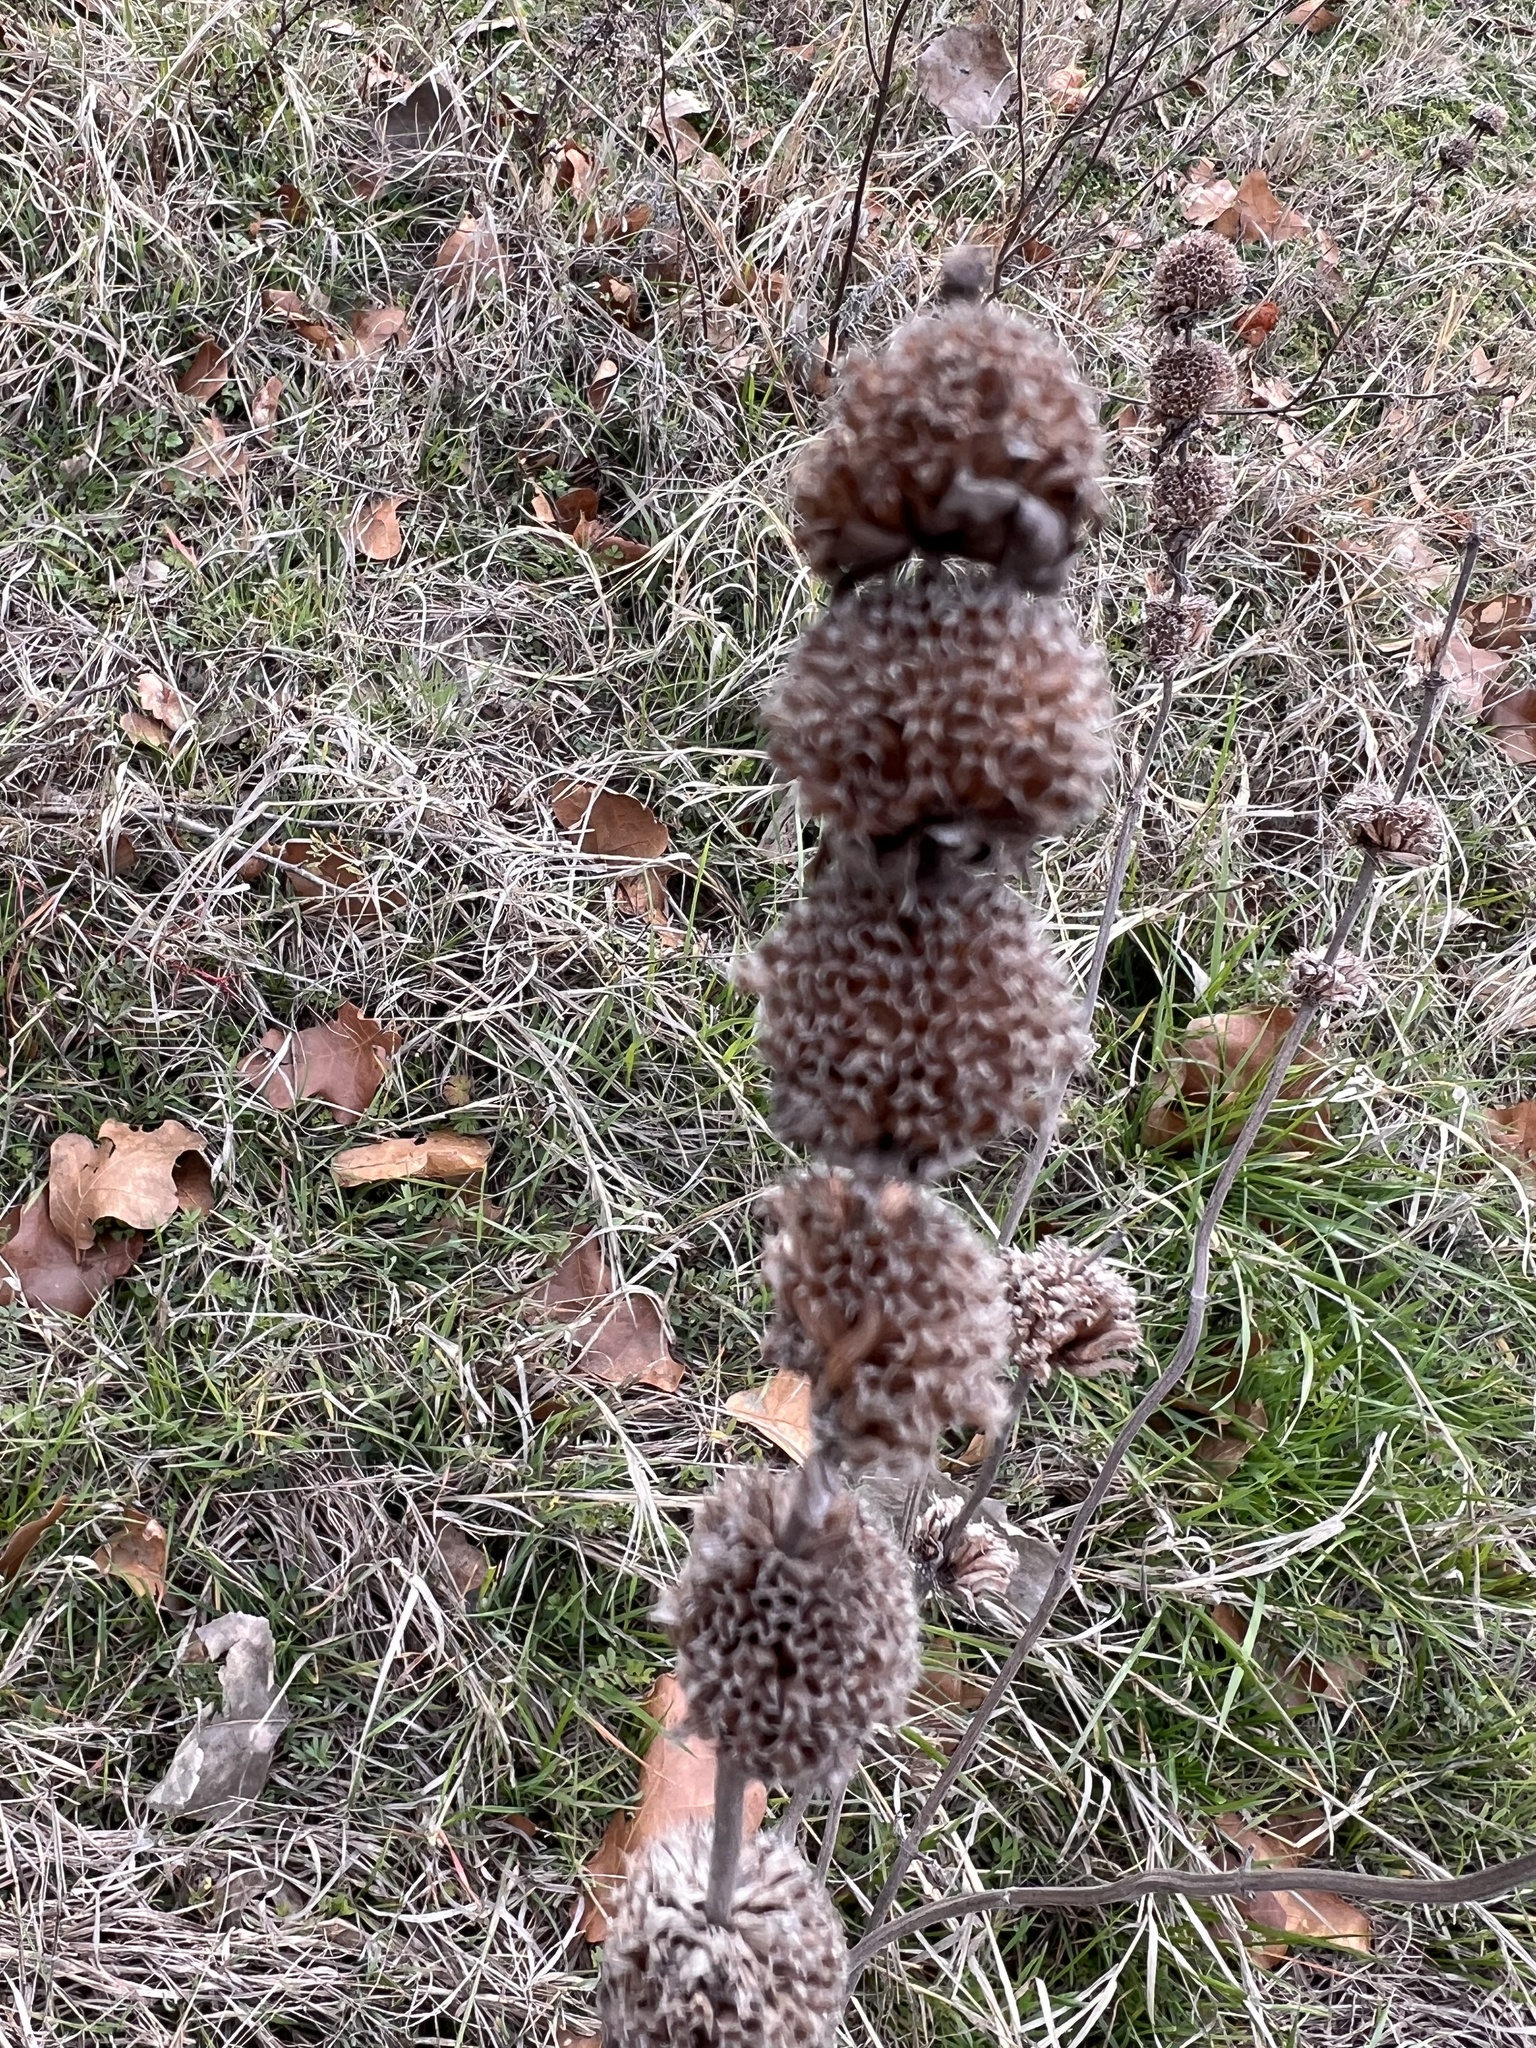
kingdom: Plantae
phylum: Tracheophyta
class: Magnoliopsida
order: Lamiales
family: Lamiaceae
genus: Monarda
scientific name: Monarda punctata
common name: Dotted monarda
